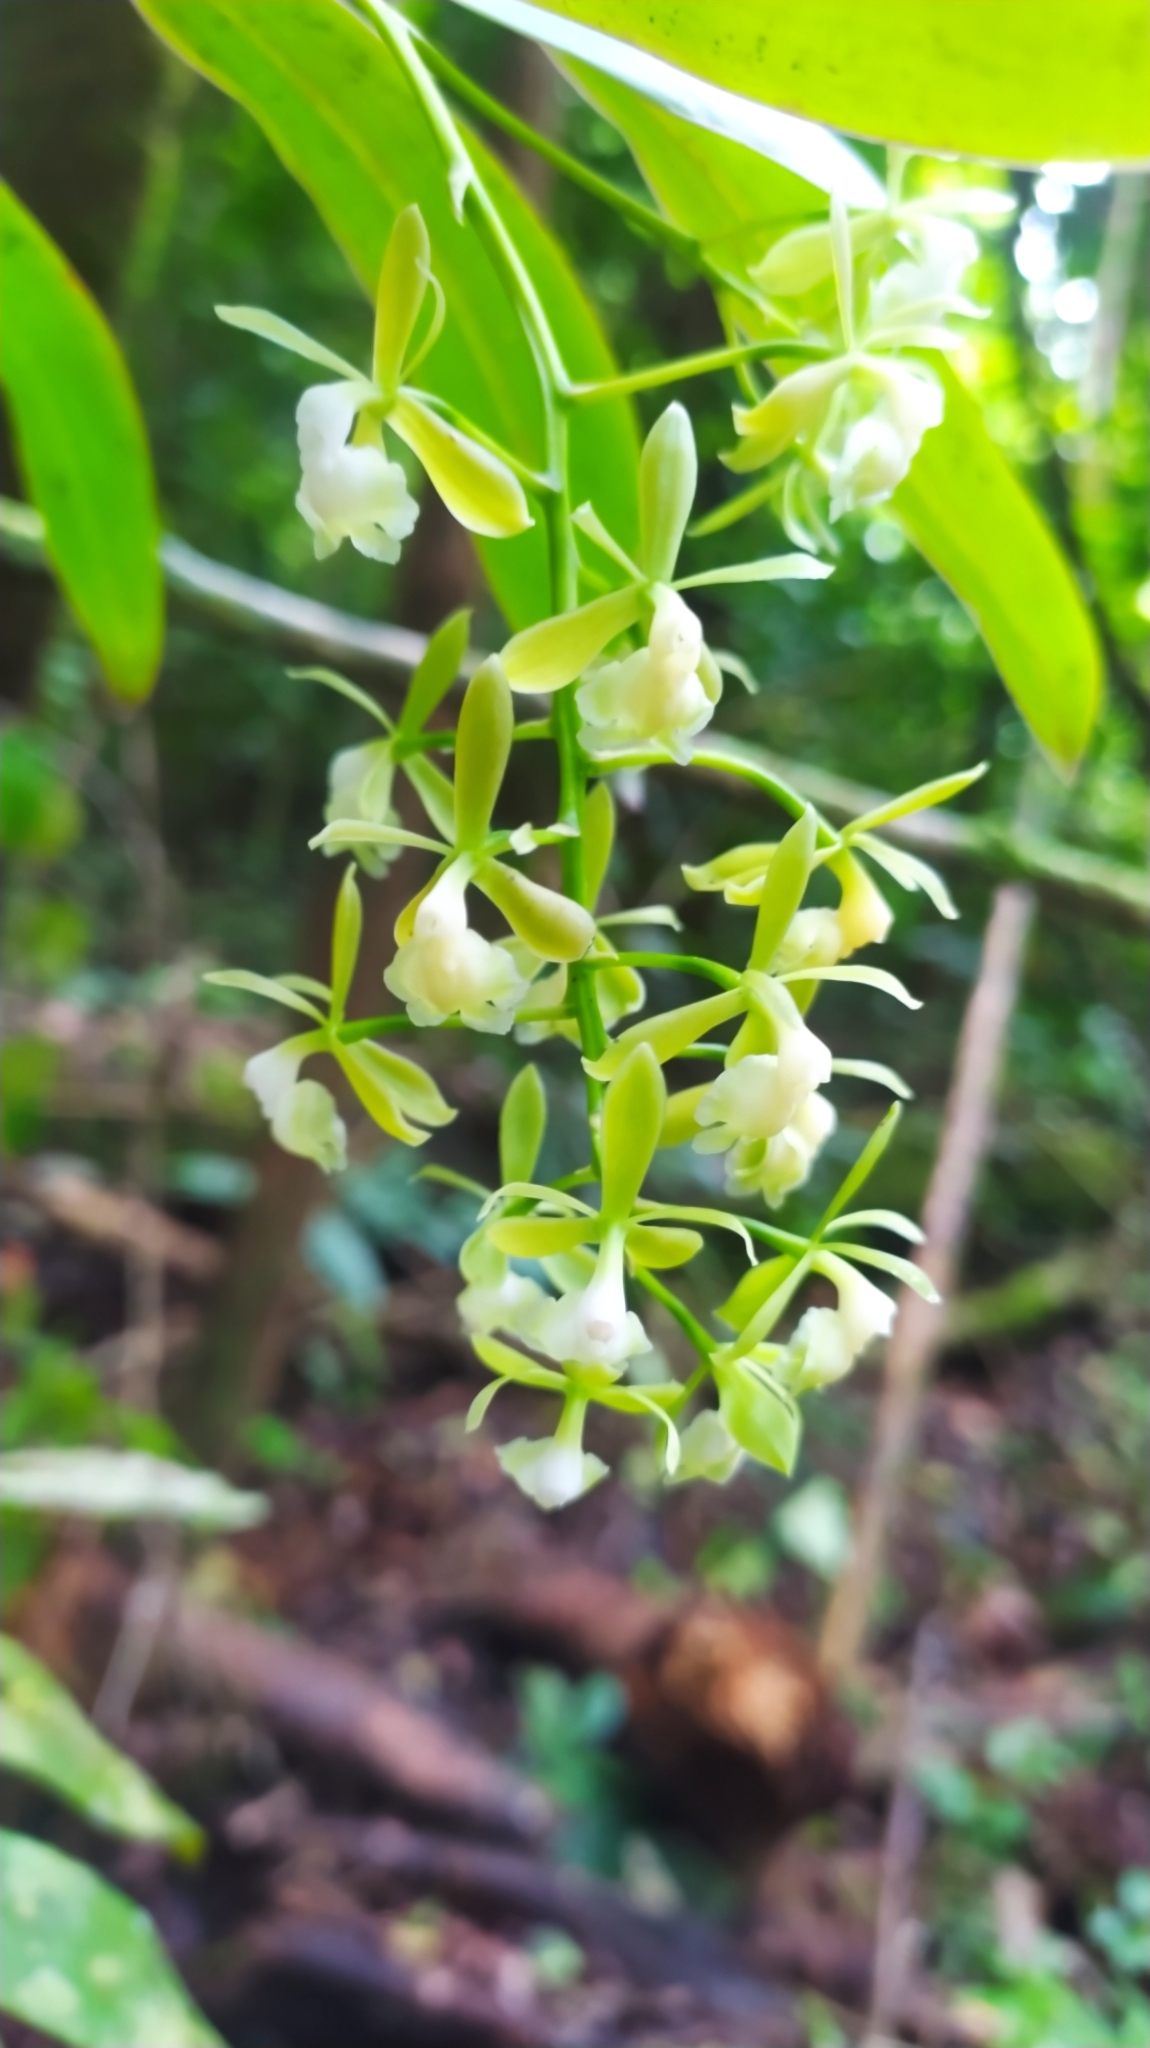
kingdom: Plantae
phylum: Tracheophyta
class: Liliopsida
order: Asparagales
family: Orchidaceae
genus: Epidendrum
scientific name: Epidendrum unguiculatum
